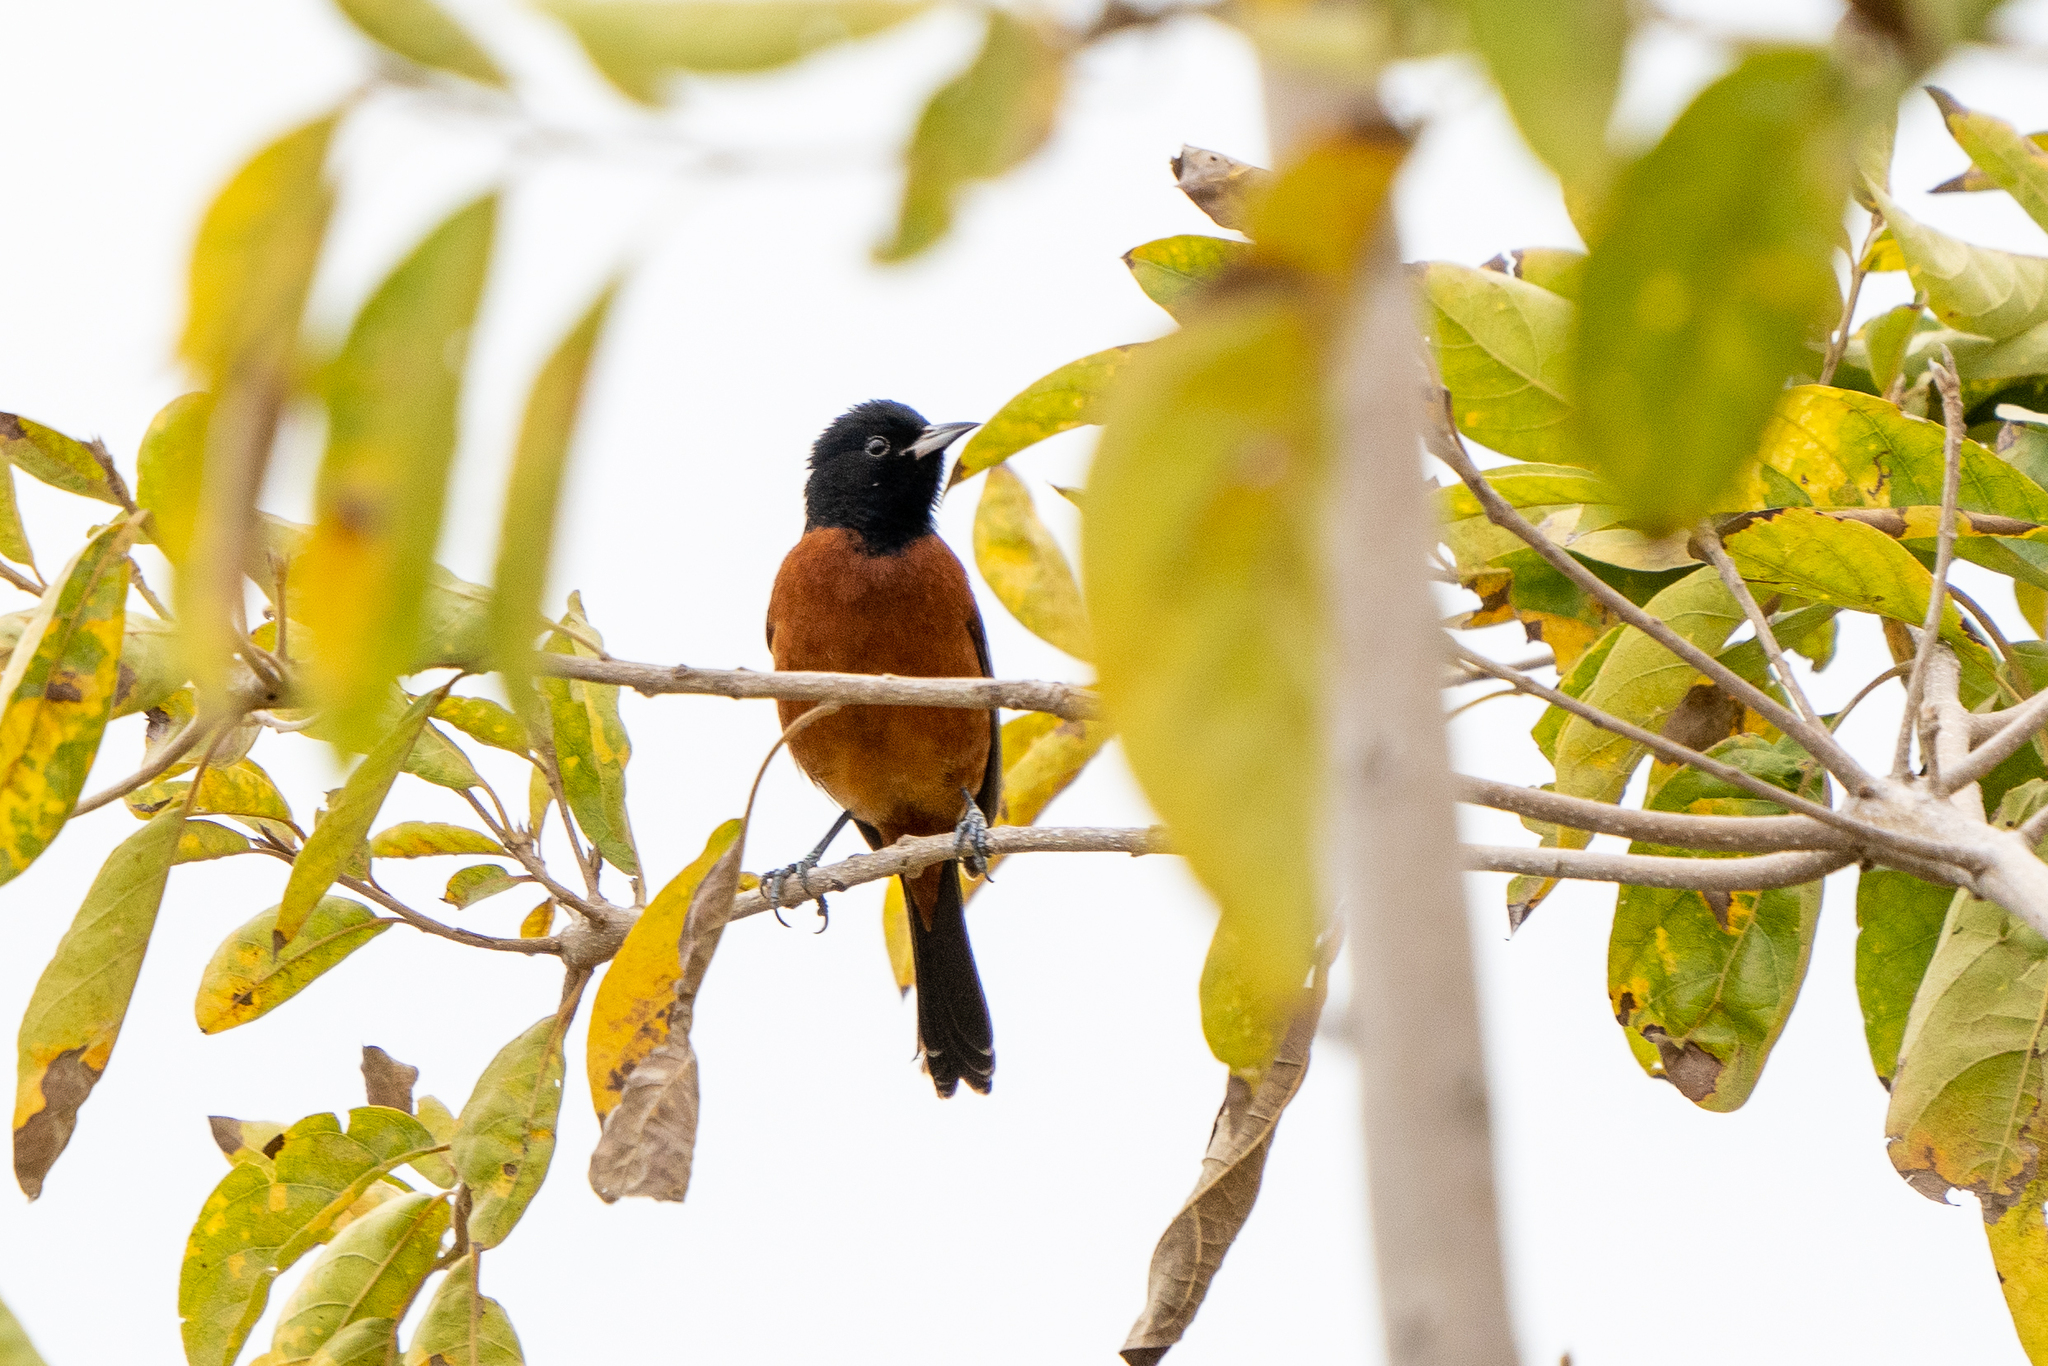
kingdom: Animalia
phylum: Chordata
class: Aves
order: Passeriformes
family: Icteridae
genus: Icterus
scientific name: Icterus spurius
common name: Orchard oriole
